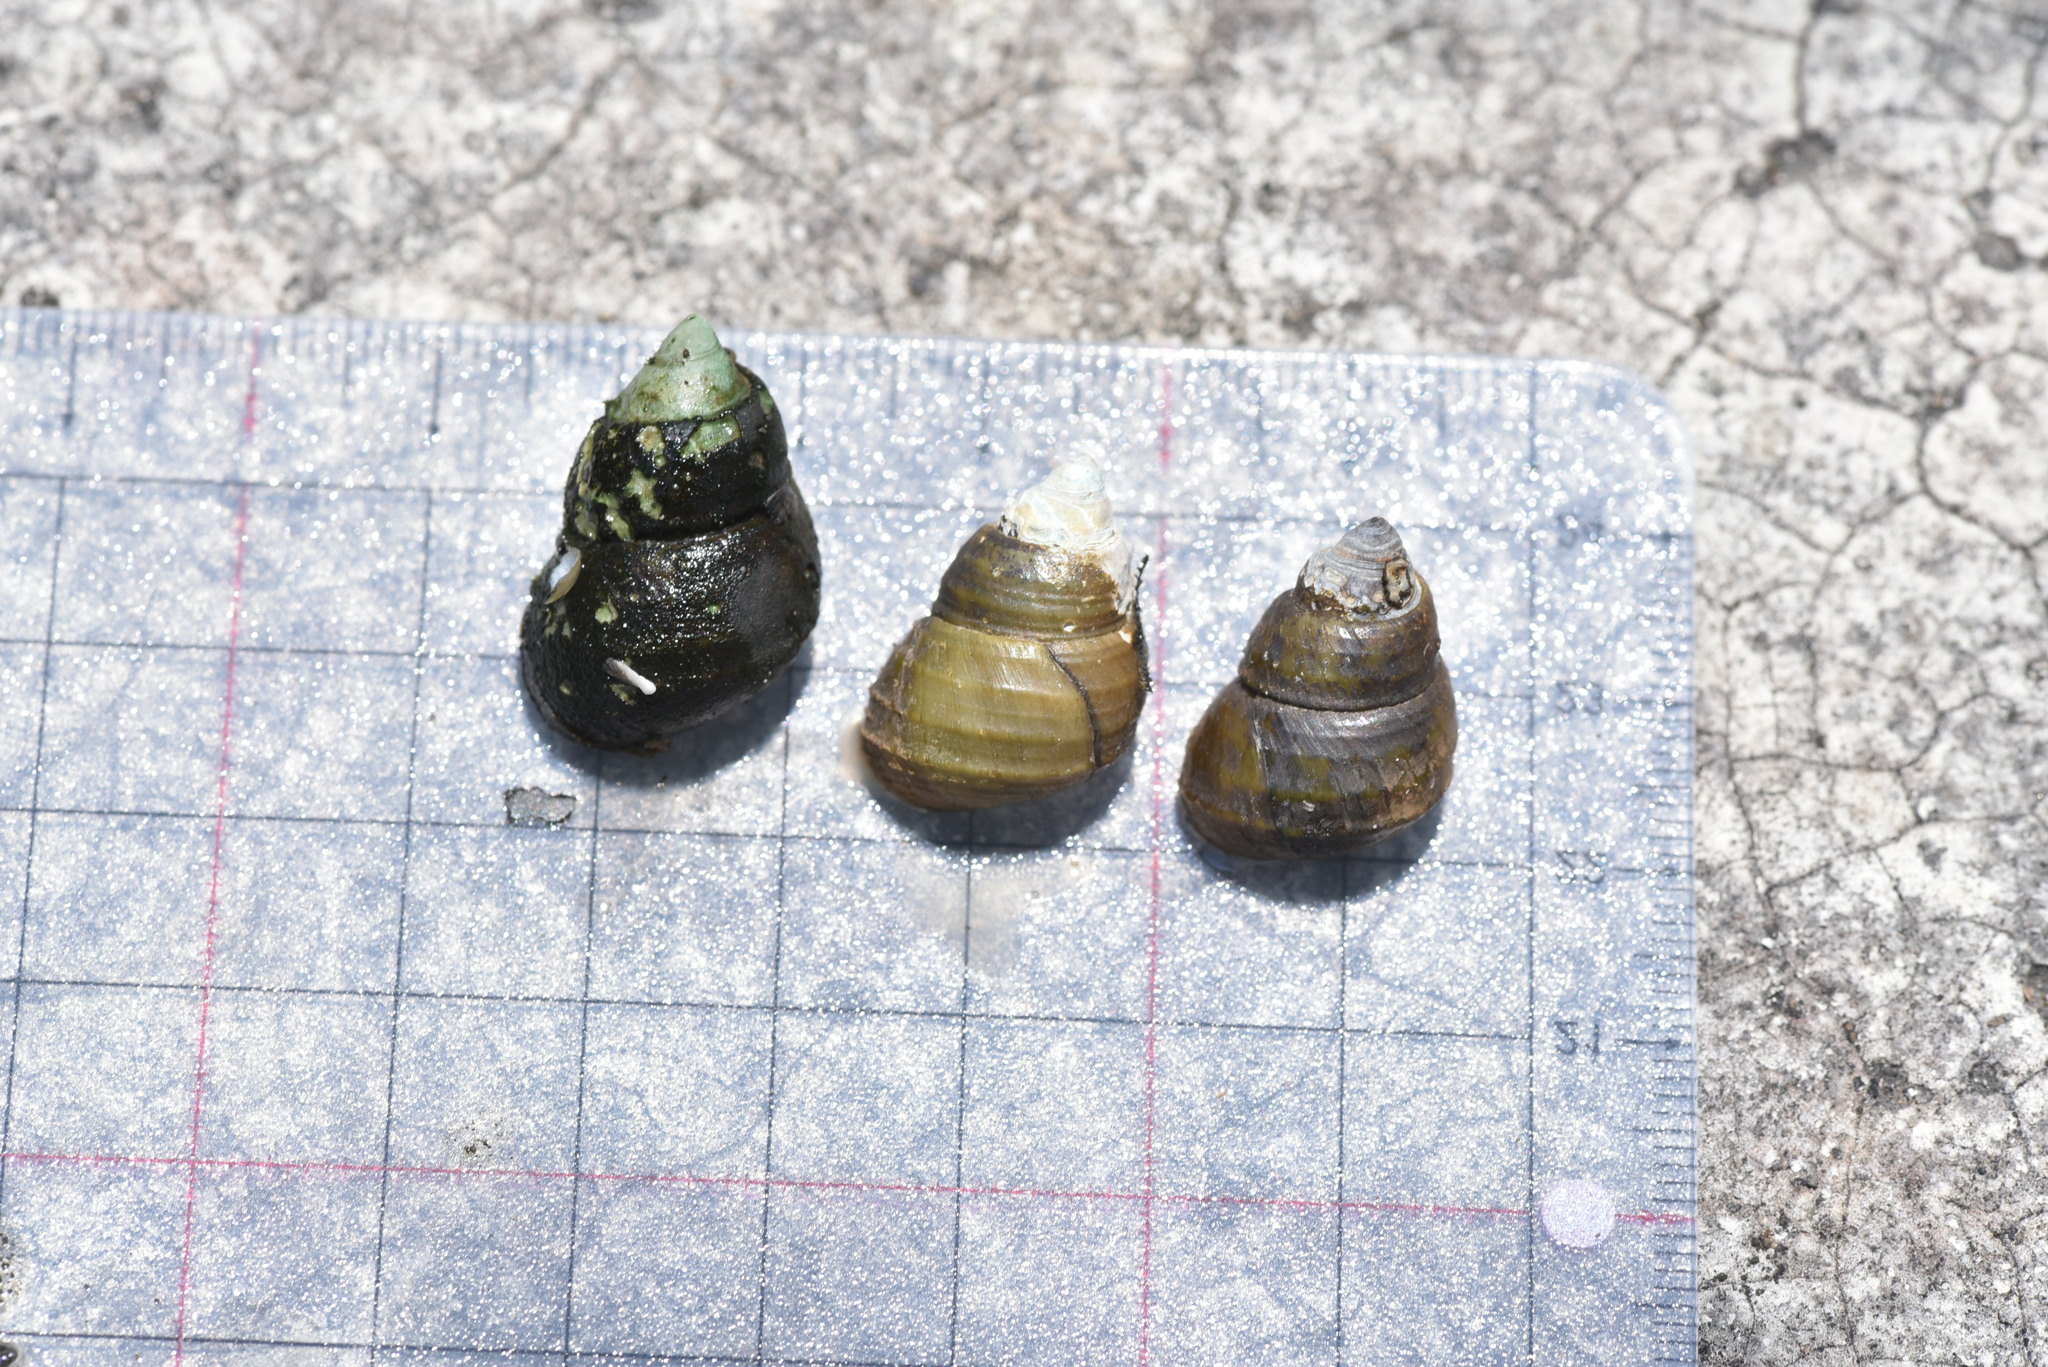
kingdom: Animalia
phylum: Mollusca
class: Gastropoda
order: Architaenioglossa
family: Viviparidae
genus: Sinotaia
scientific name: Sinotaia quadrata
